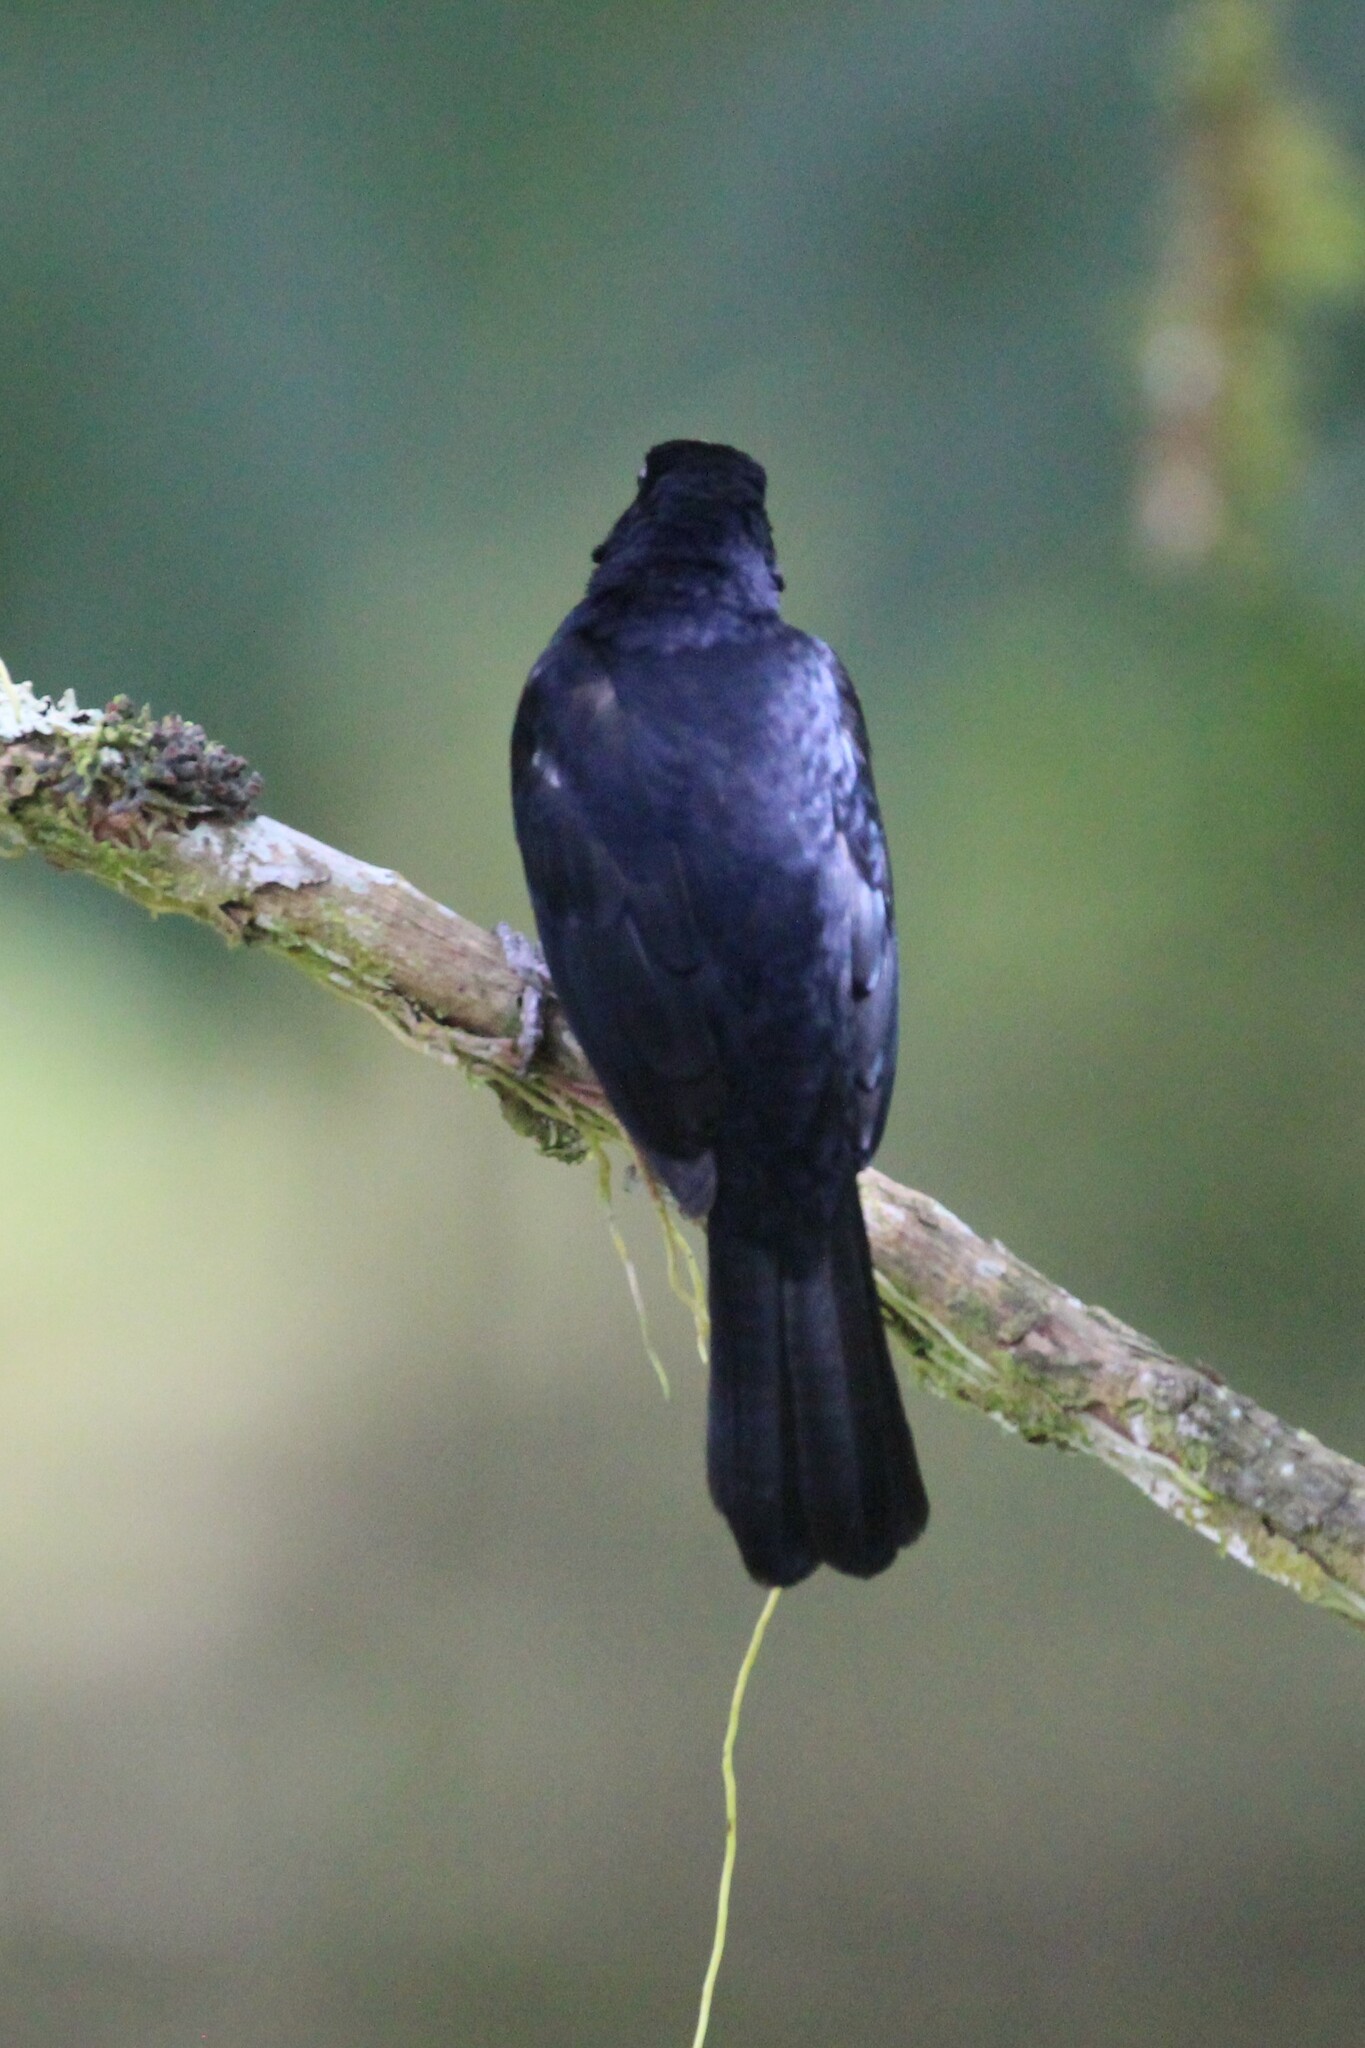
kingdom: Animalia
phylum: Chordata
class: Aves
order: Passeriformes
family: Thraupidae
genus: Tachyphonus
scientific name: Tachyphonus rufus
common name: White-lined tanager
